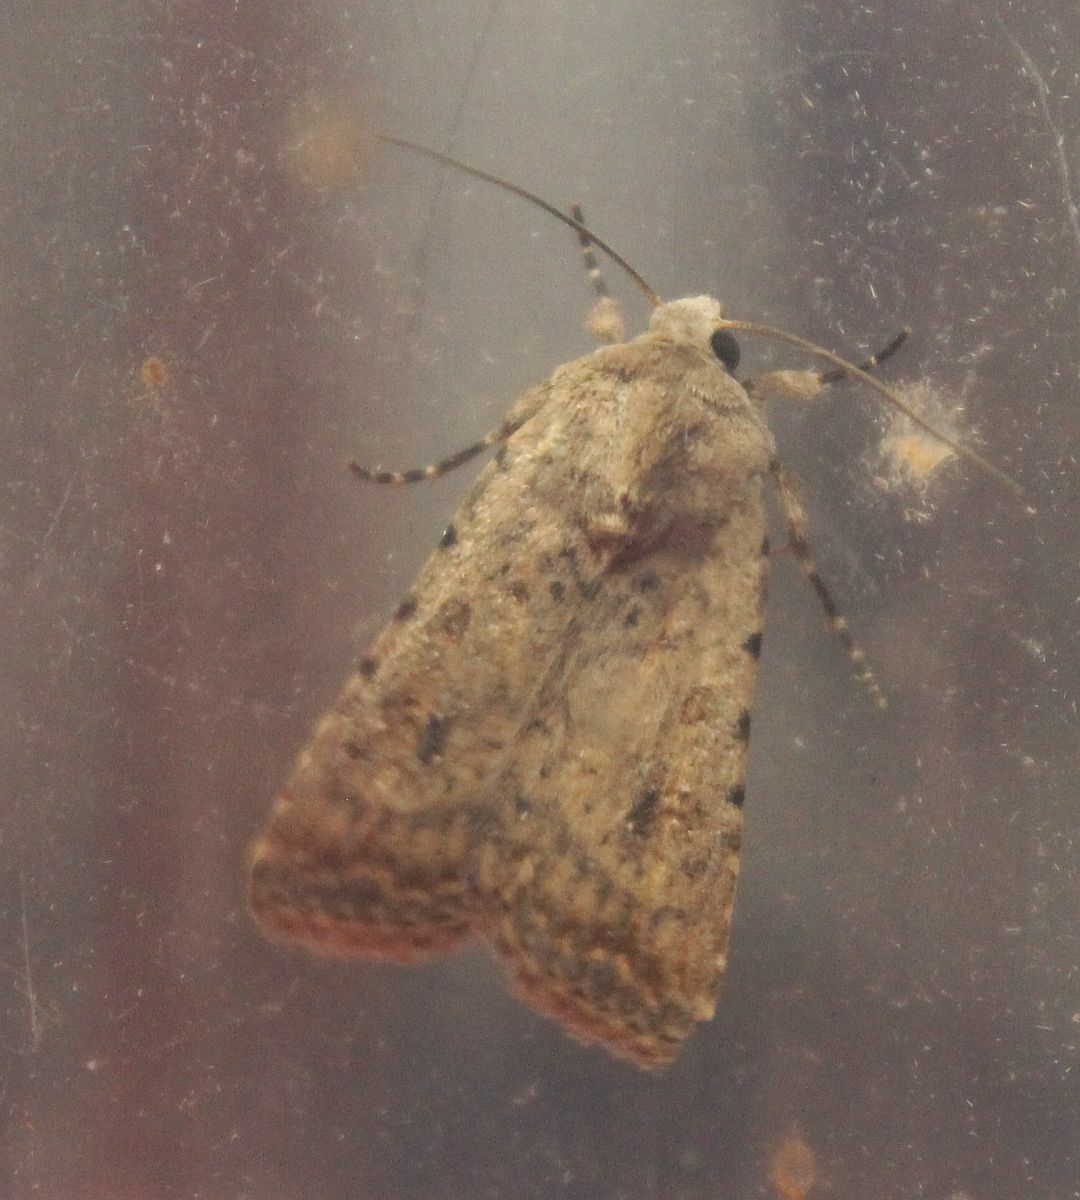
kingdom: Animalia
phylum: Arthropoda
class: Insecta
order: Lepidoptera
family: Noctuidae
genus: Caradrina
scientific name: Caradrina clavipalpis
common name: Pale mottled willow
